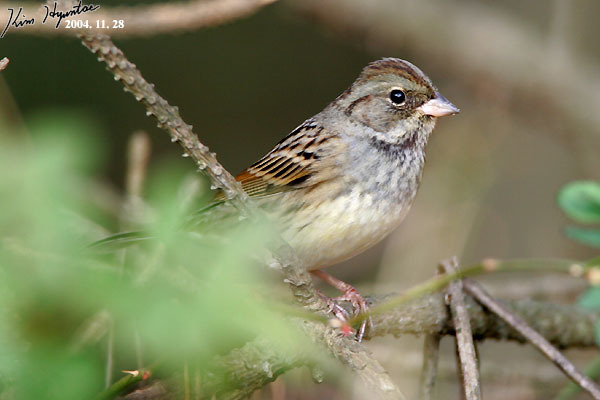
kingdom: Animalia
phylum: Chordata
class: Aves
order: Passeriformes
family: Emberizidae
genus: Emberiza
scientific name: Emberiza spodocephala
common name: Black-faced bunting
